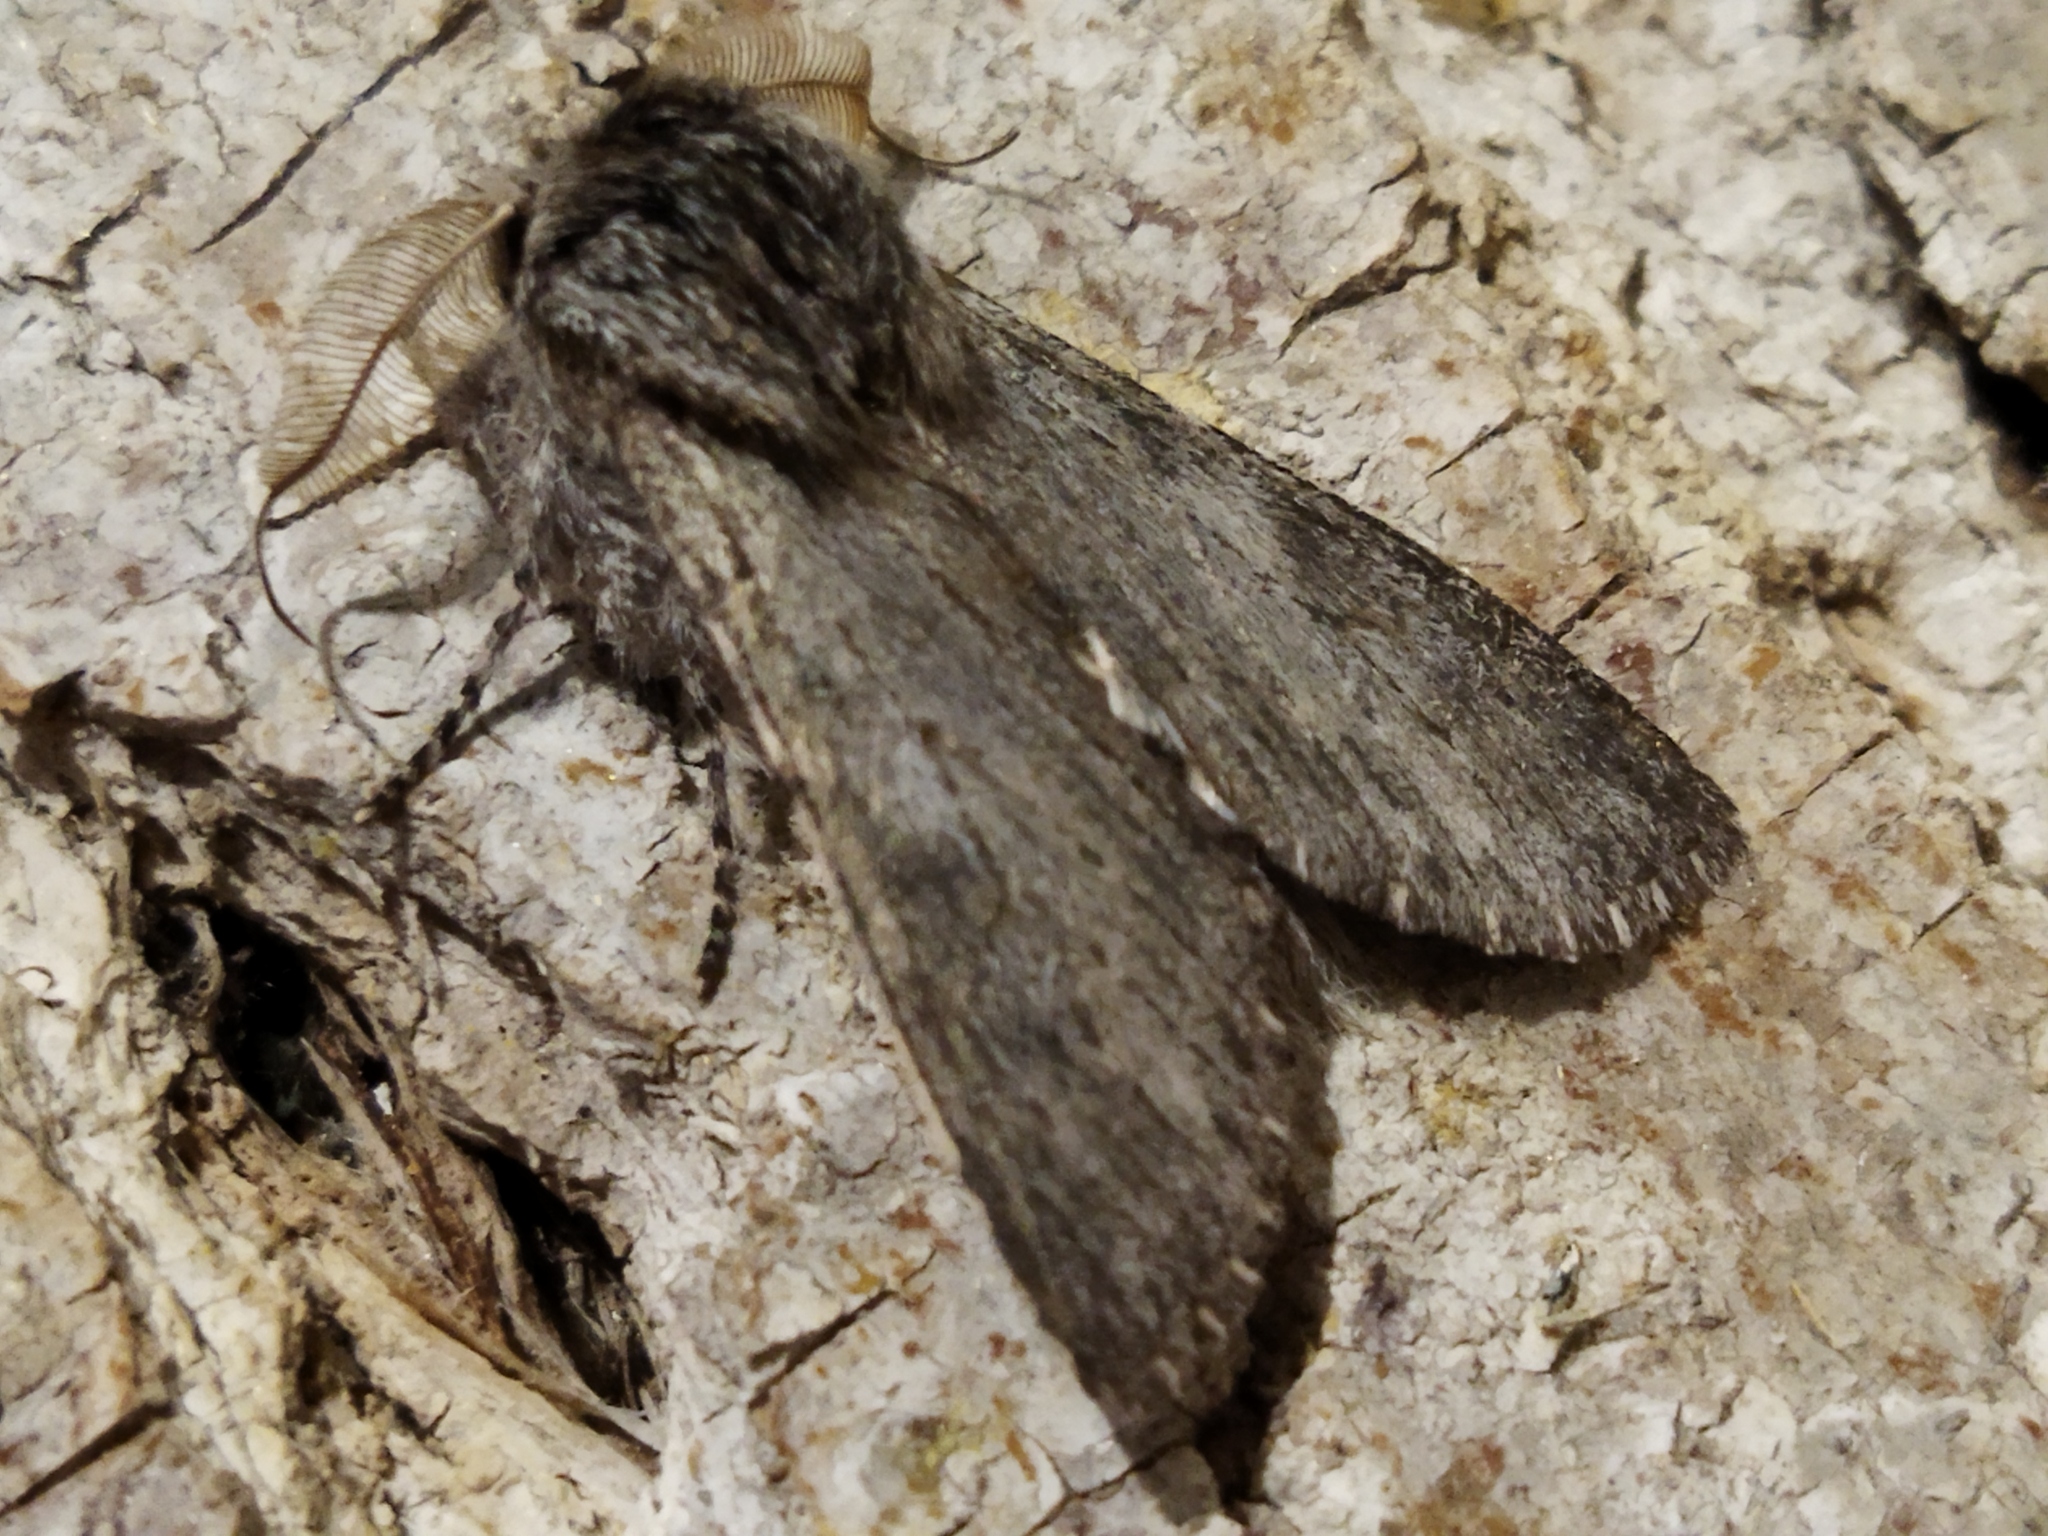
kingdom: Animalia
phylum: Arthropoda
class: Insecta
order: Lepidoptera
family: Notodontidae
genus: Dicranura
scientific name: Dicranura ulmi
